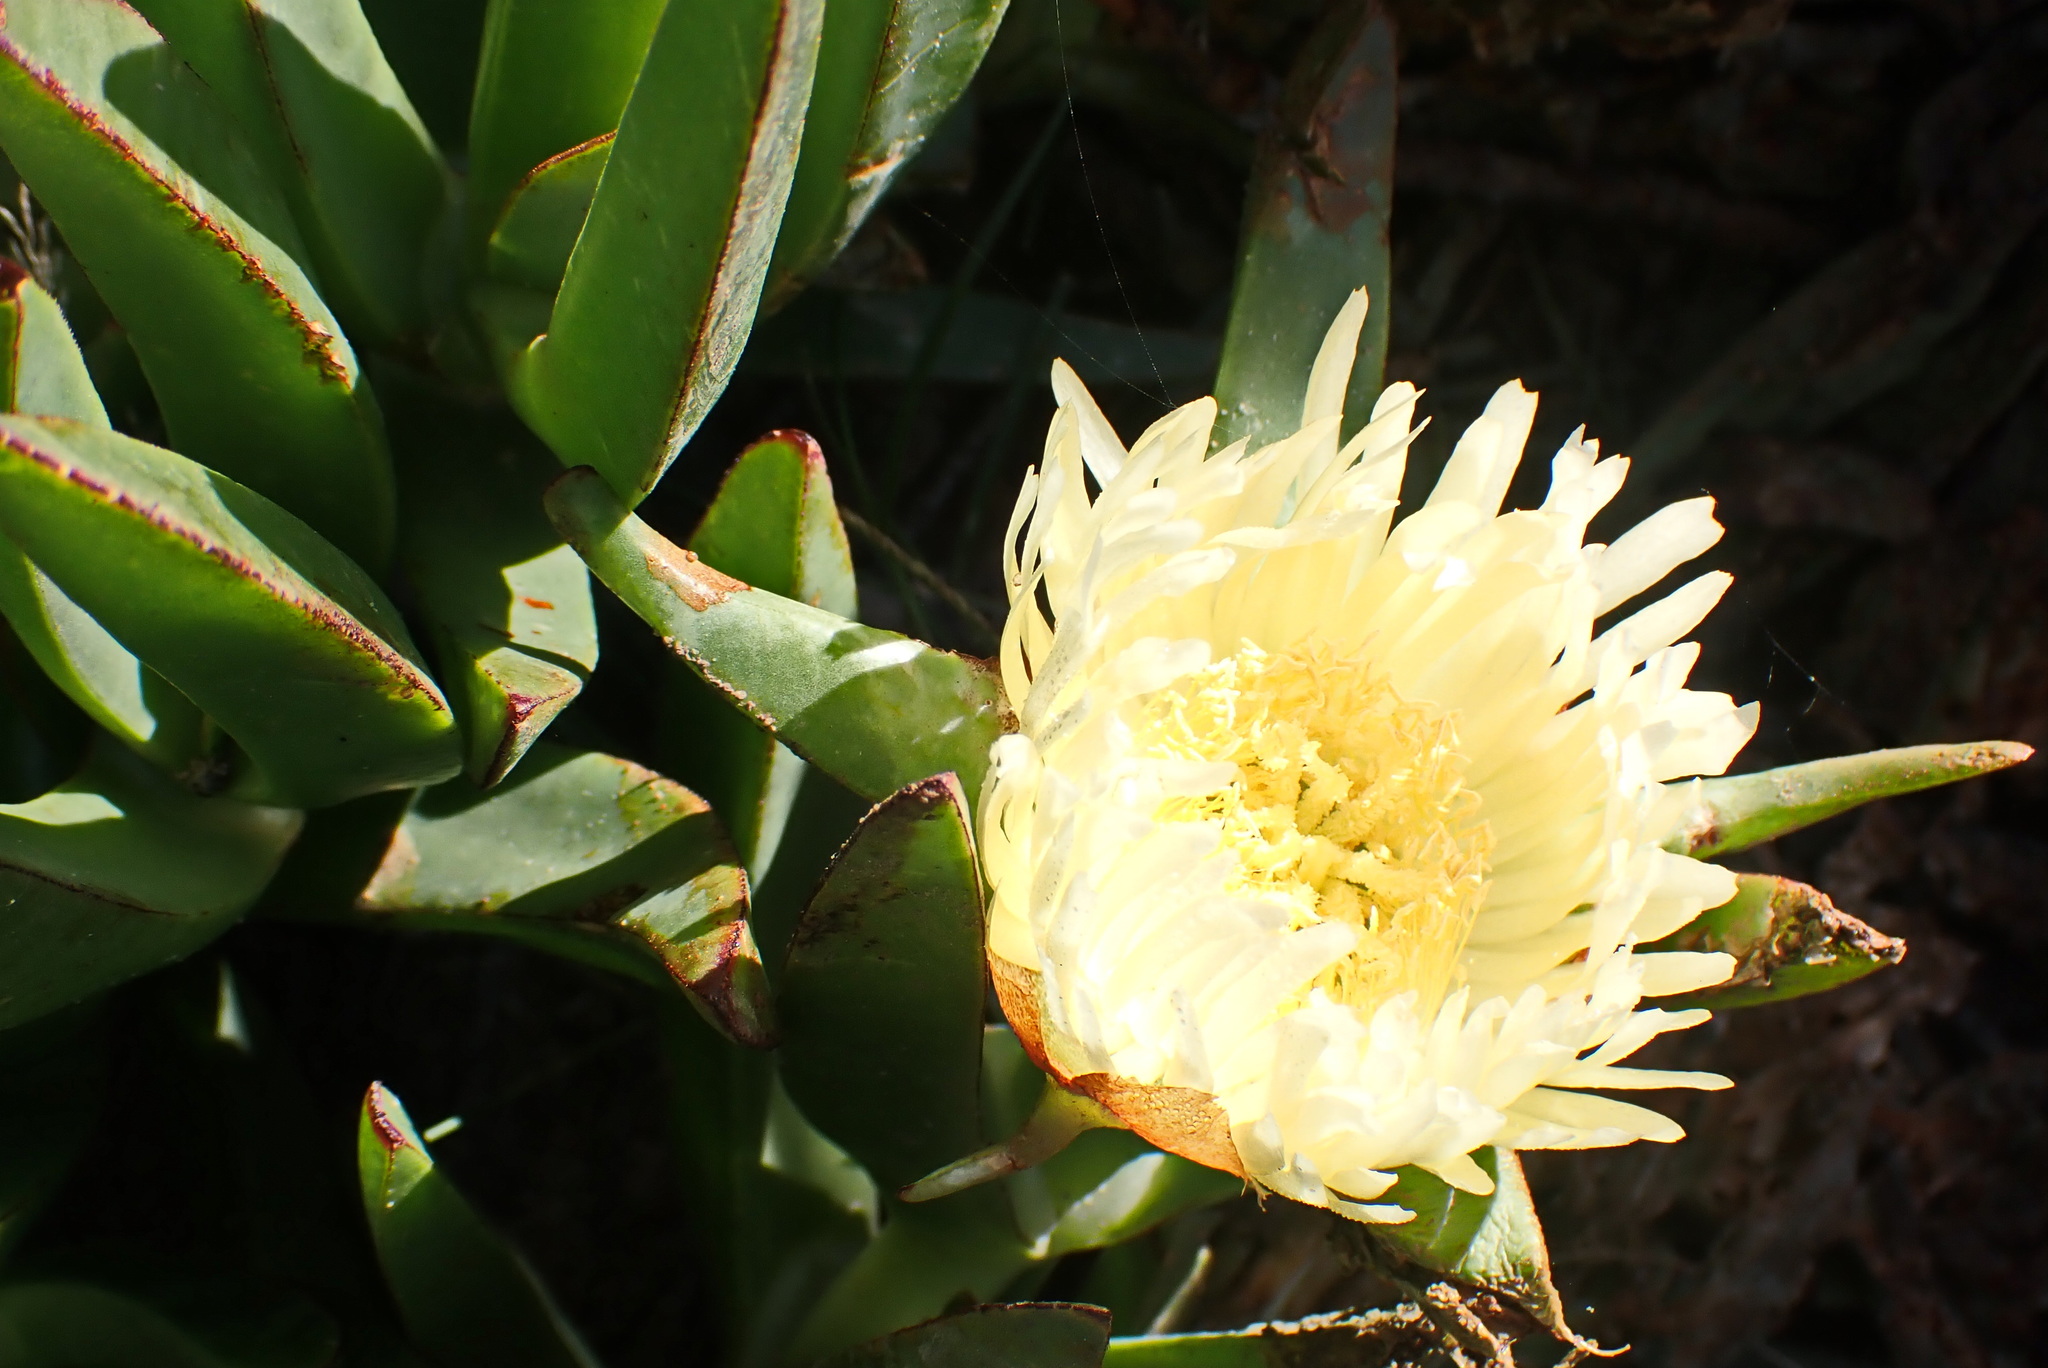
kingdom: Plantae
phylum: Tracheophyta
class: Magnoliopsida
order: Caryophyllales
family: Aizoaceae
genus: Carpobrotus
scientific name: Carpobrotus edulis
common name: Hottentot-fig
